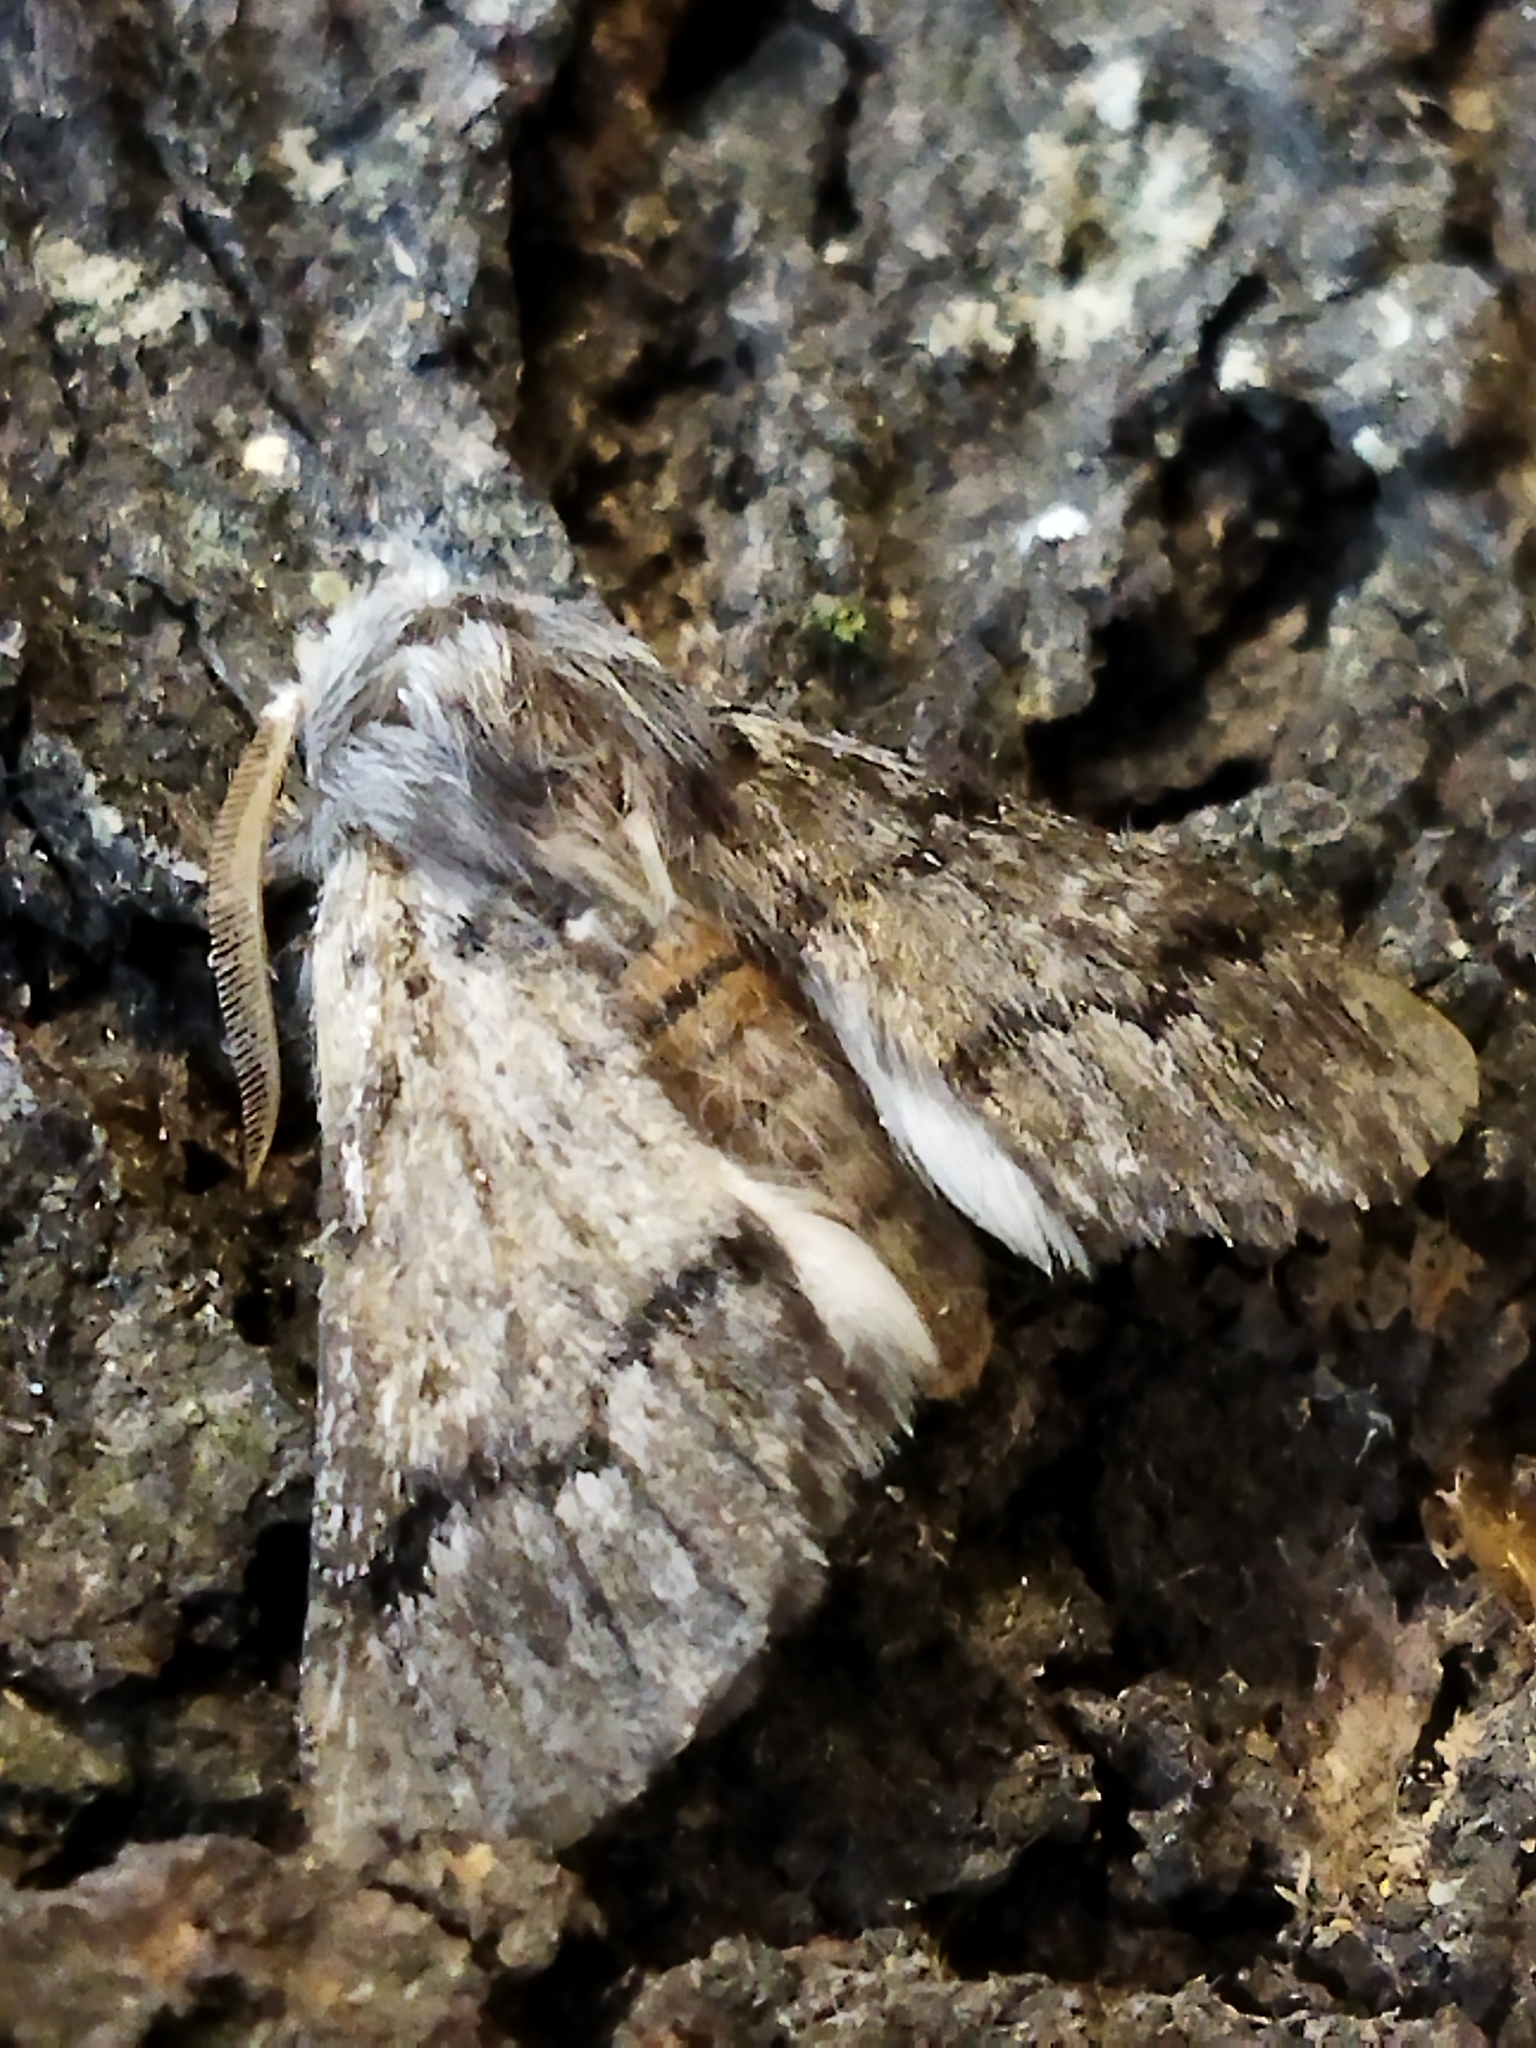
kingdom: Animalia
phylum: Arthropoda
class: Insecta
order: Lepidoptera
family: Notodontidae
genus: Thaumetopoea
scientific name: Thaumetopoea pityocampa
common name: Pine processionary
